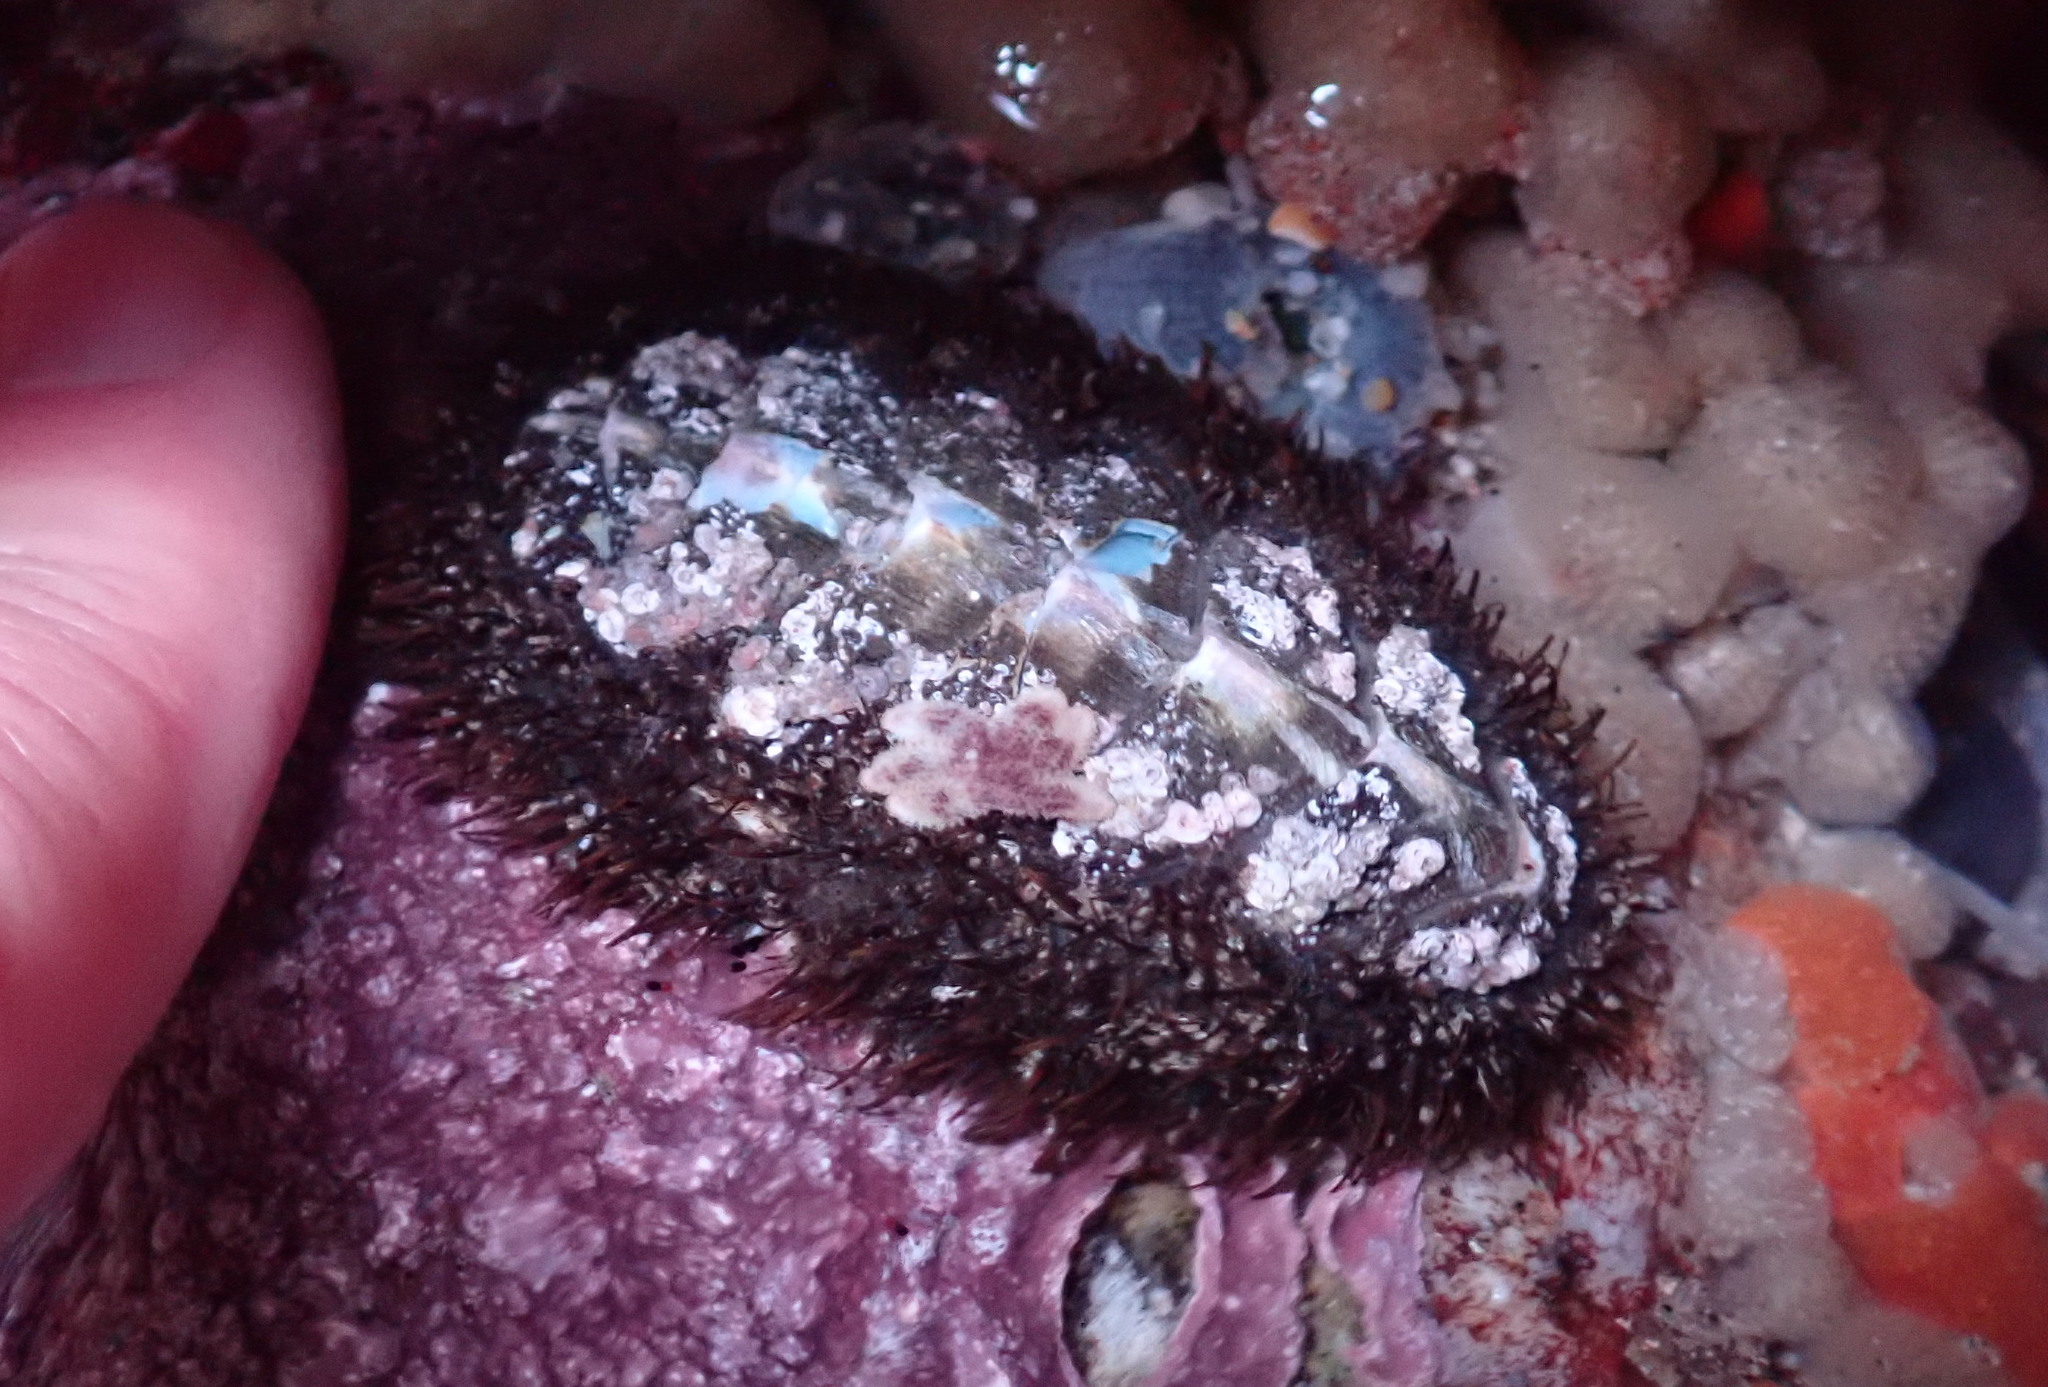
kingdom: Animalia
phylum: Mollusca
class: Polyplacophora
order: Chitonida
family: Mopaliidae
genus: Mopalia
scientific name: Mopalia muscosa
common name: Mossy chiton
